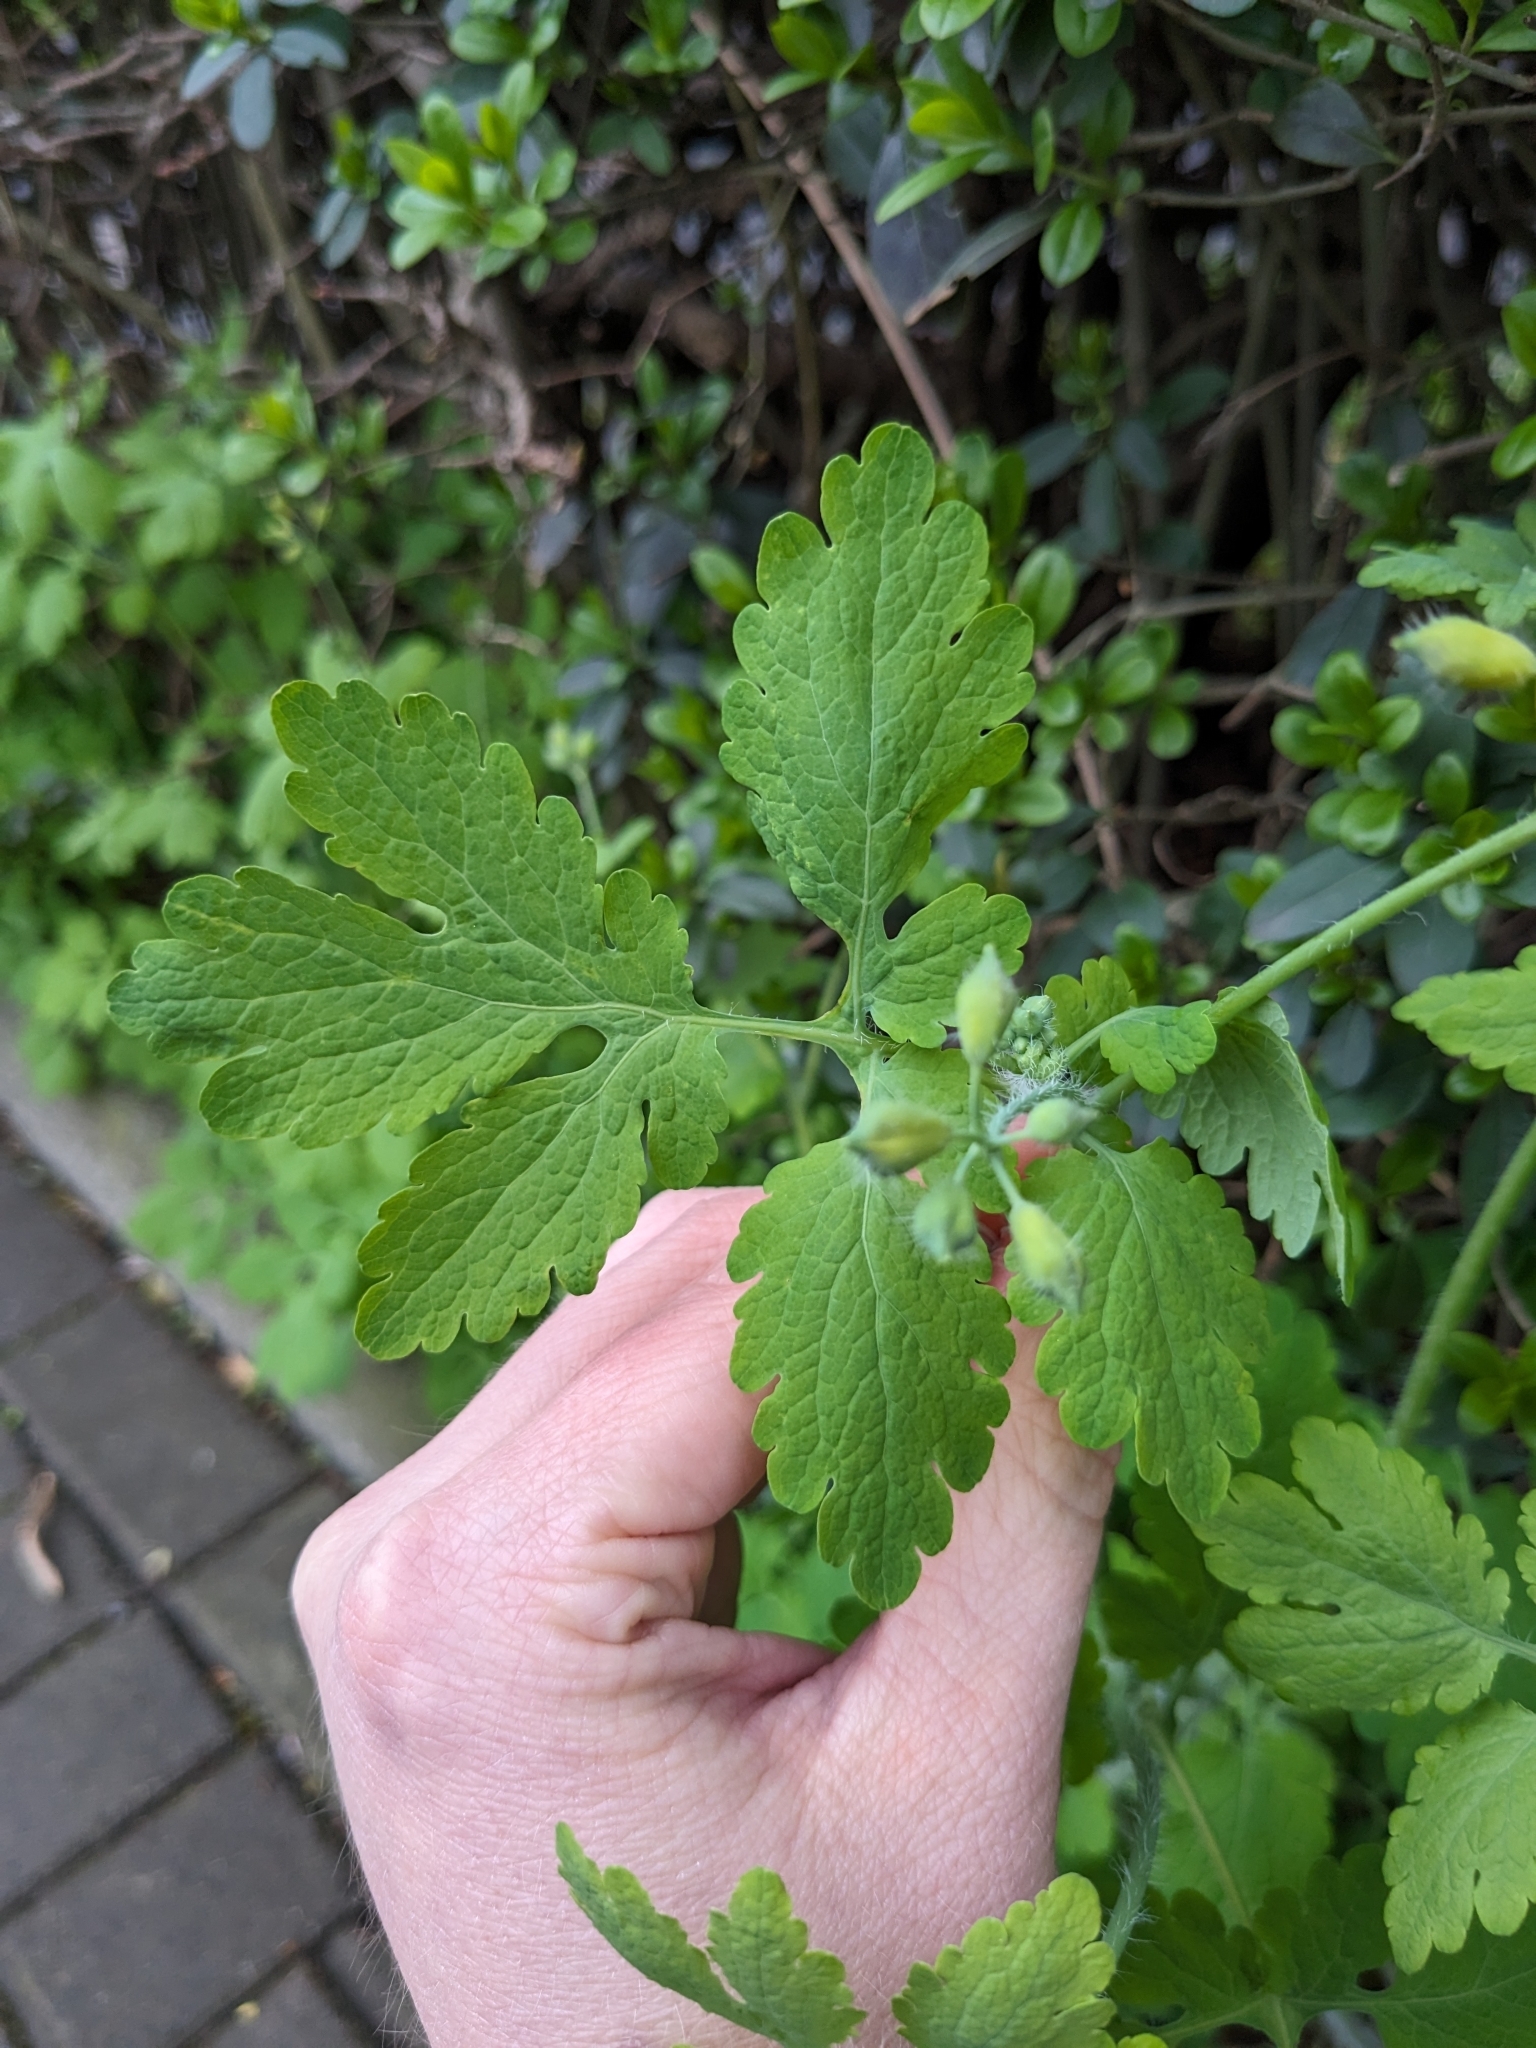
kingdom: Plantae
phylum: Tracheophyta
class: Magnoliopsida
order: Ranunculales
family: Papaveraceae
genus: Chelidonium
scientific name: Chelidonium majus
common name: Greater celandine
